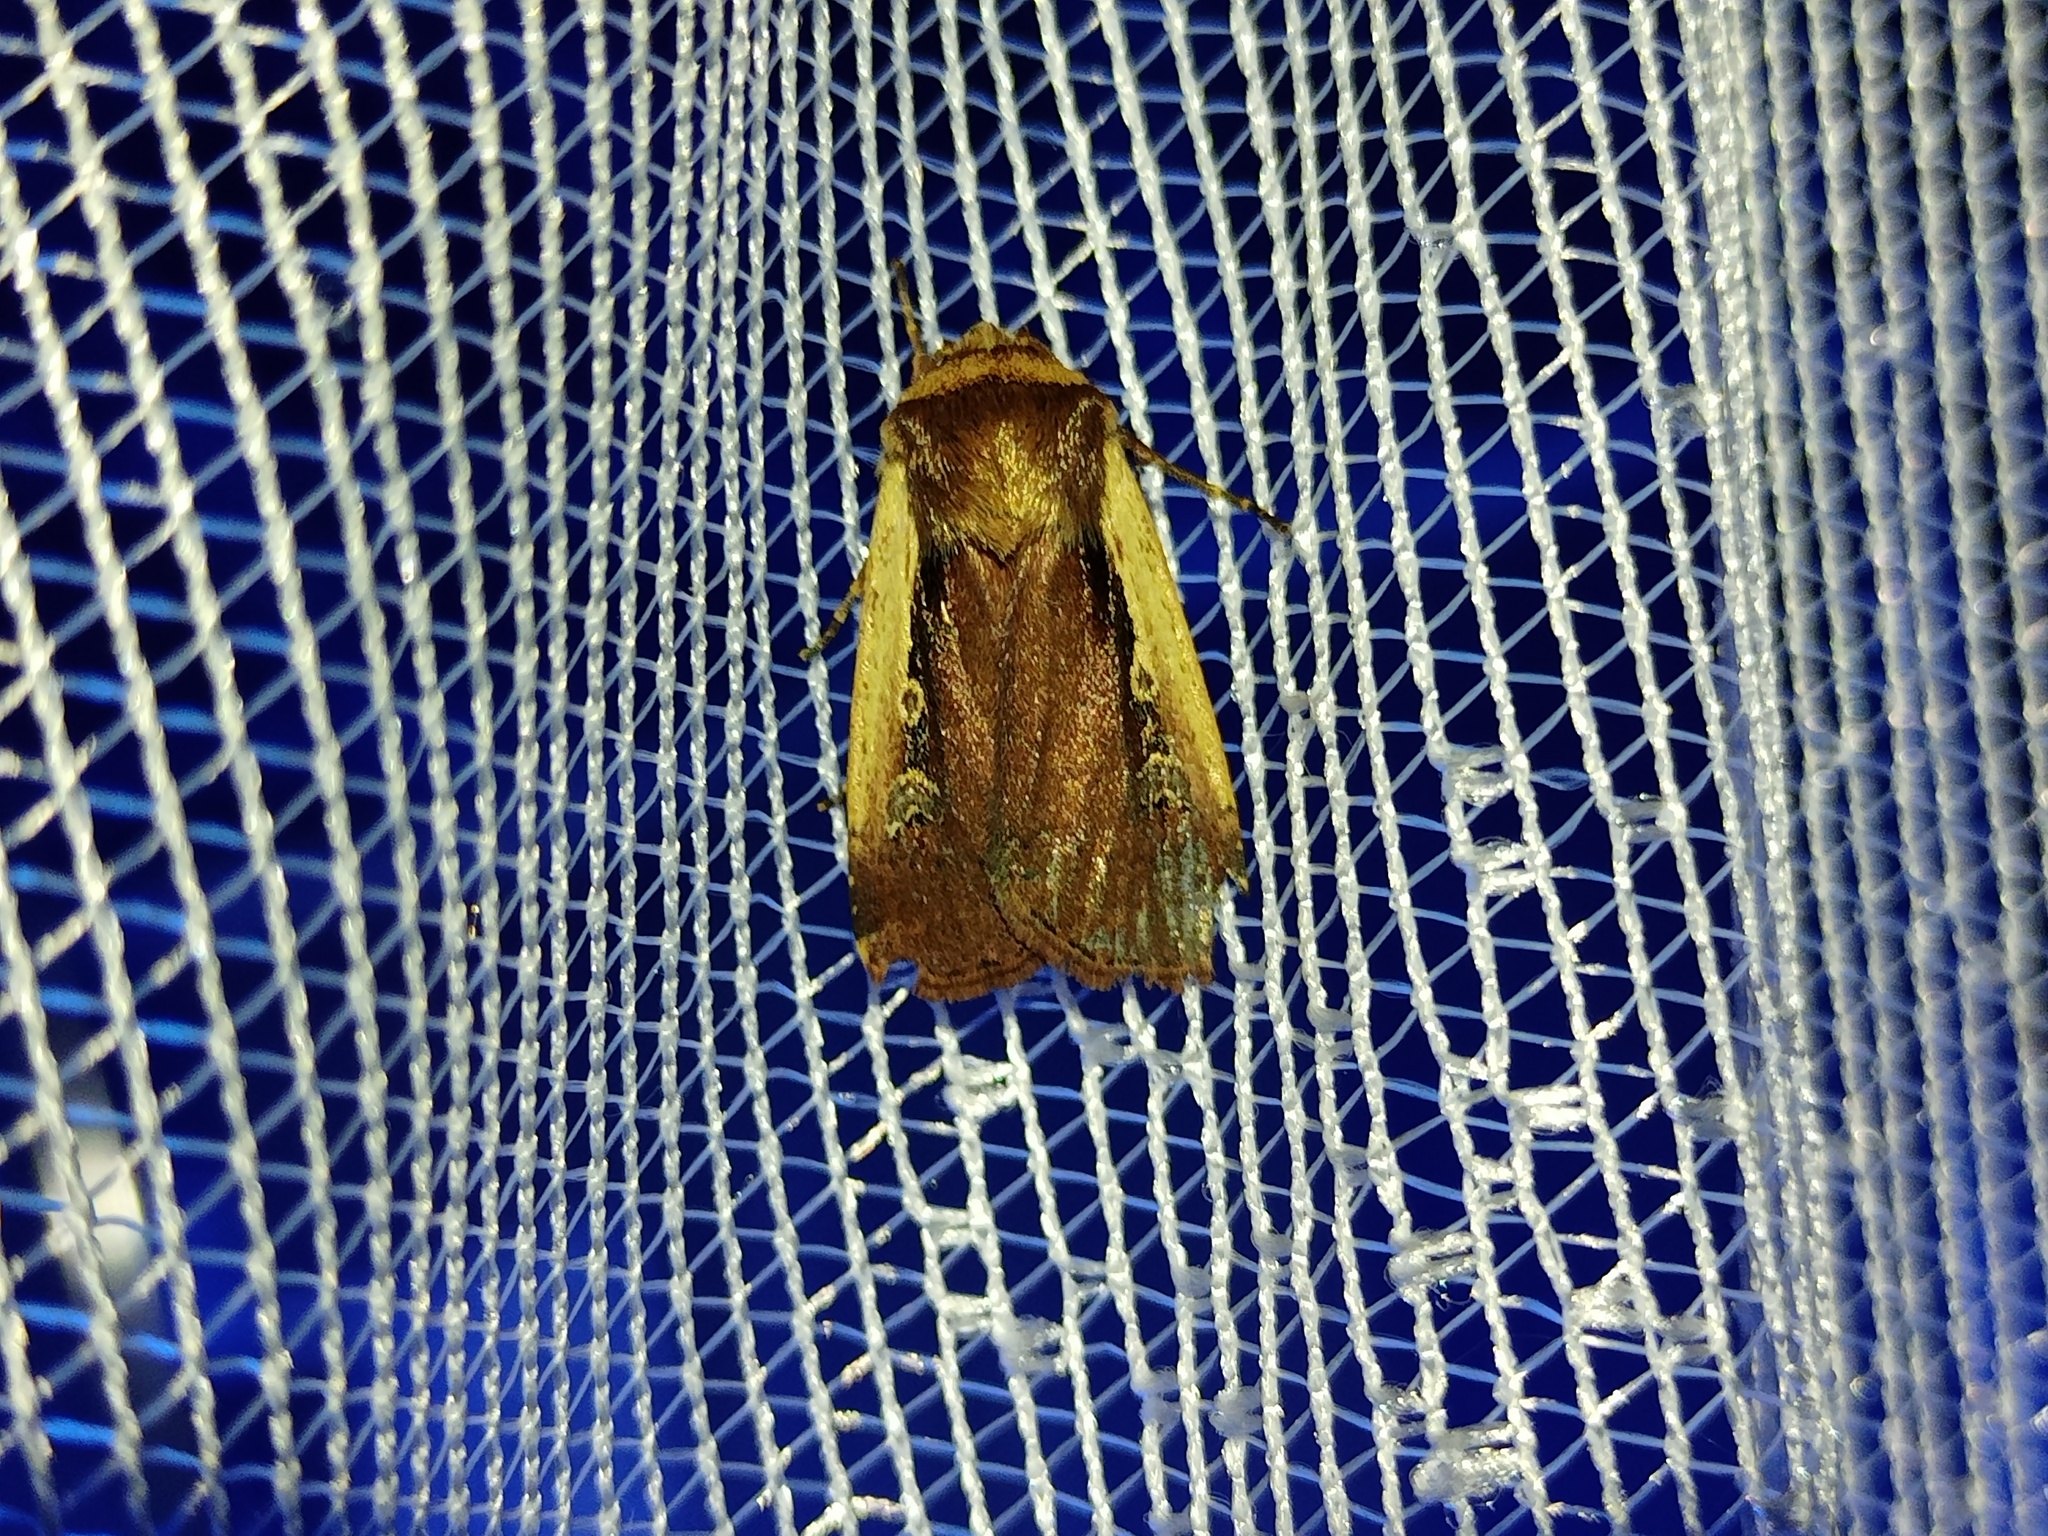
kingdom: Animalia
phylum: Arthropoda
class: Insecta
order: Lepidoptera
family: Noctuidae
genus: Ochropleura
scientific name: Ochropleura plecta
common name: Flame shoulder
